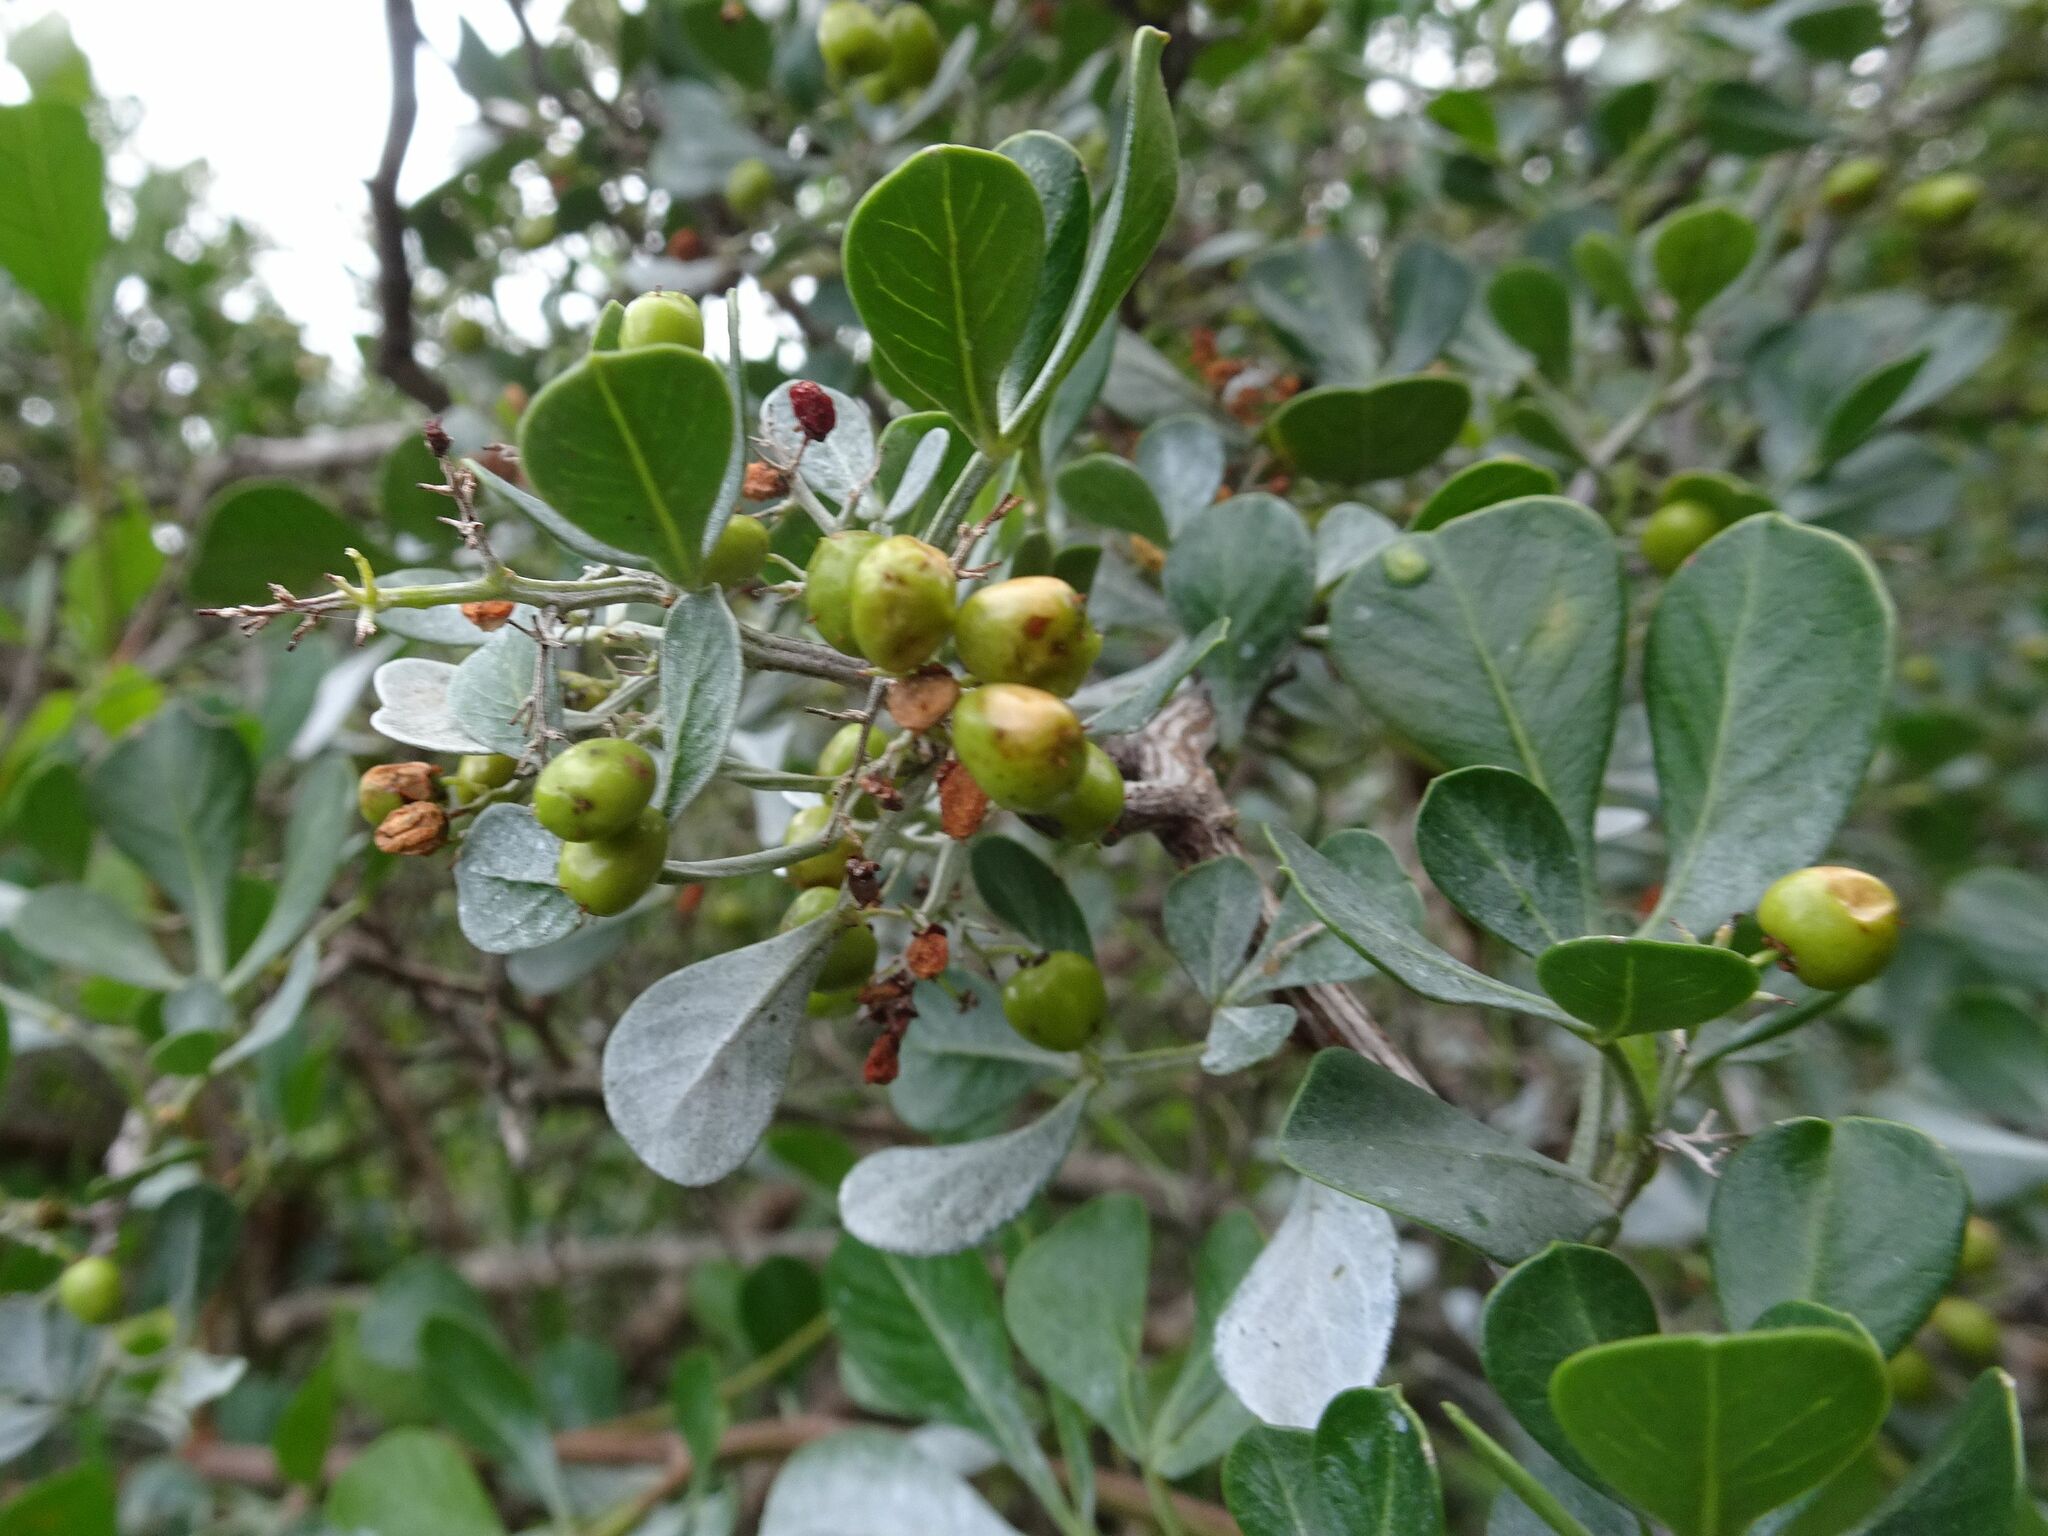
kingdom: Plantae
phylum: Tracheophyta
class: Magnoliopsida
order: Sapindales
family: Anacardiaceae
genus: Searsia
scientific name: Searsia glauca
